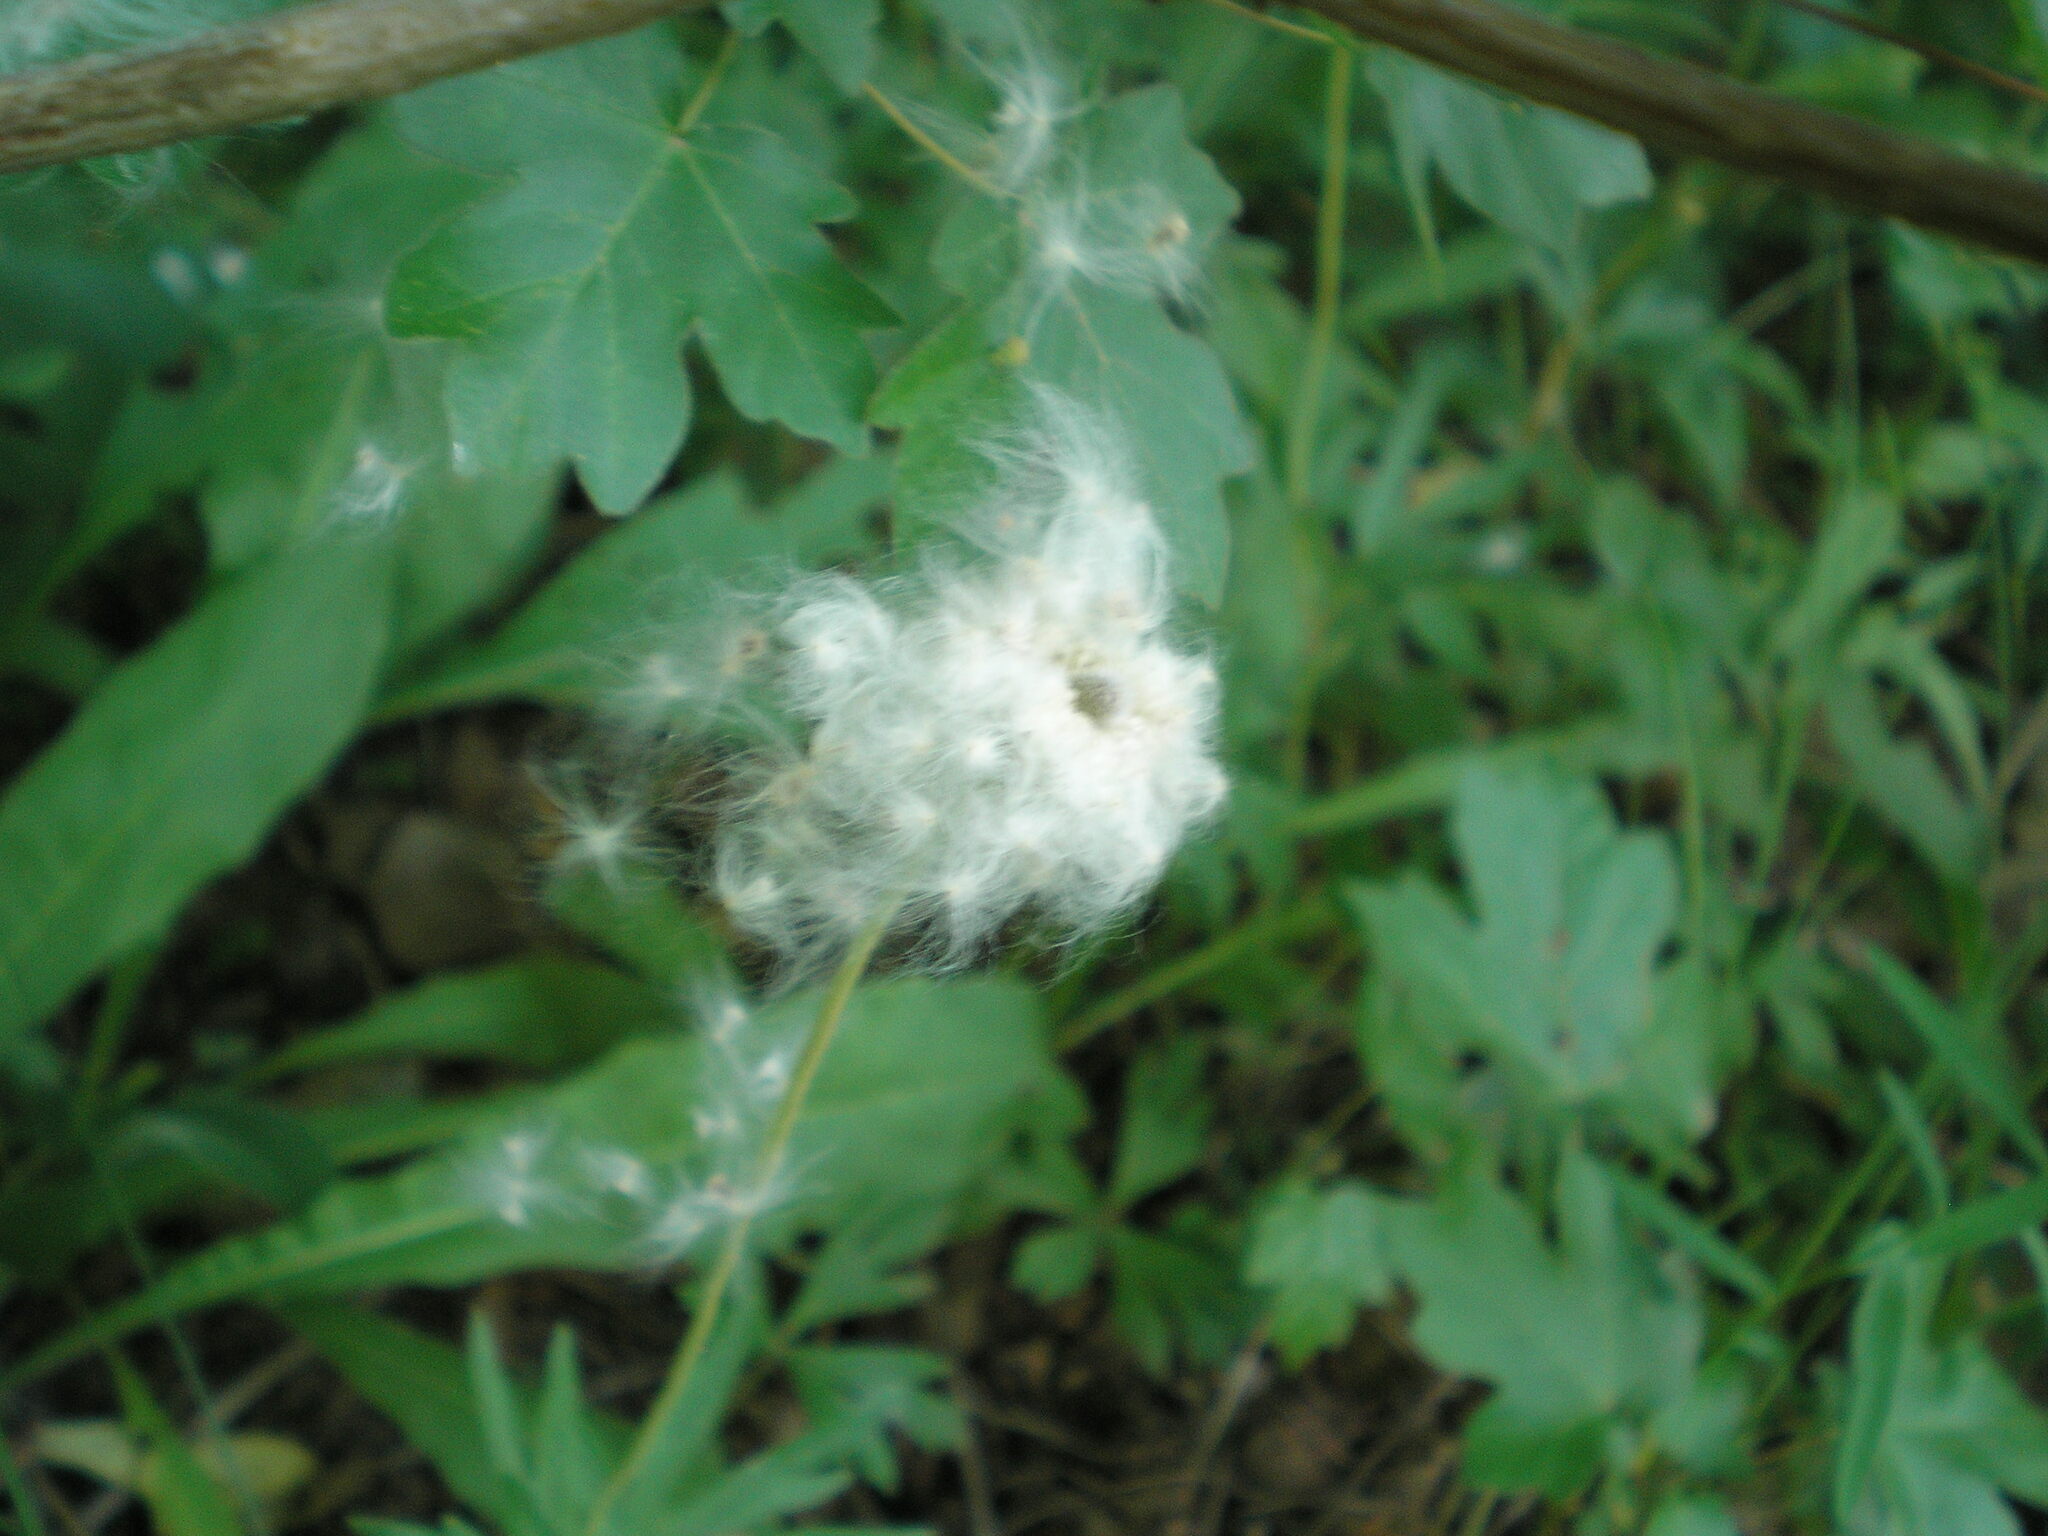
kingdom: Plantae
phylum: Tracheophyta
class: Magnoliopsida
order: Ranunculales
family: Ranunculaceae
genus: Anemone
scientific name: Anemone sylvestris
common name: Snowdrop anemone
